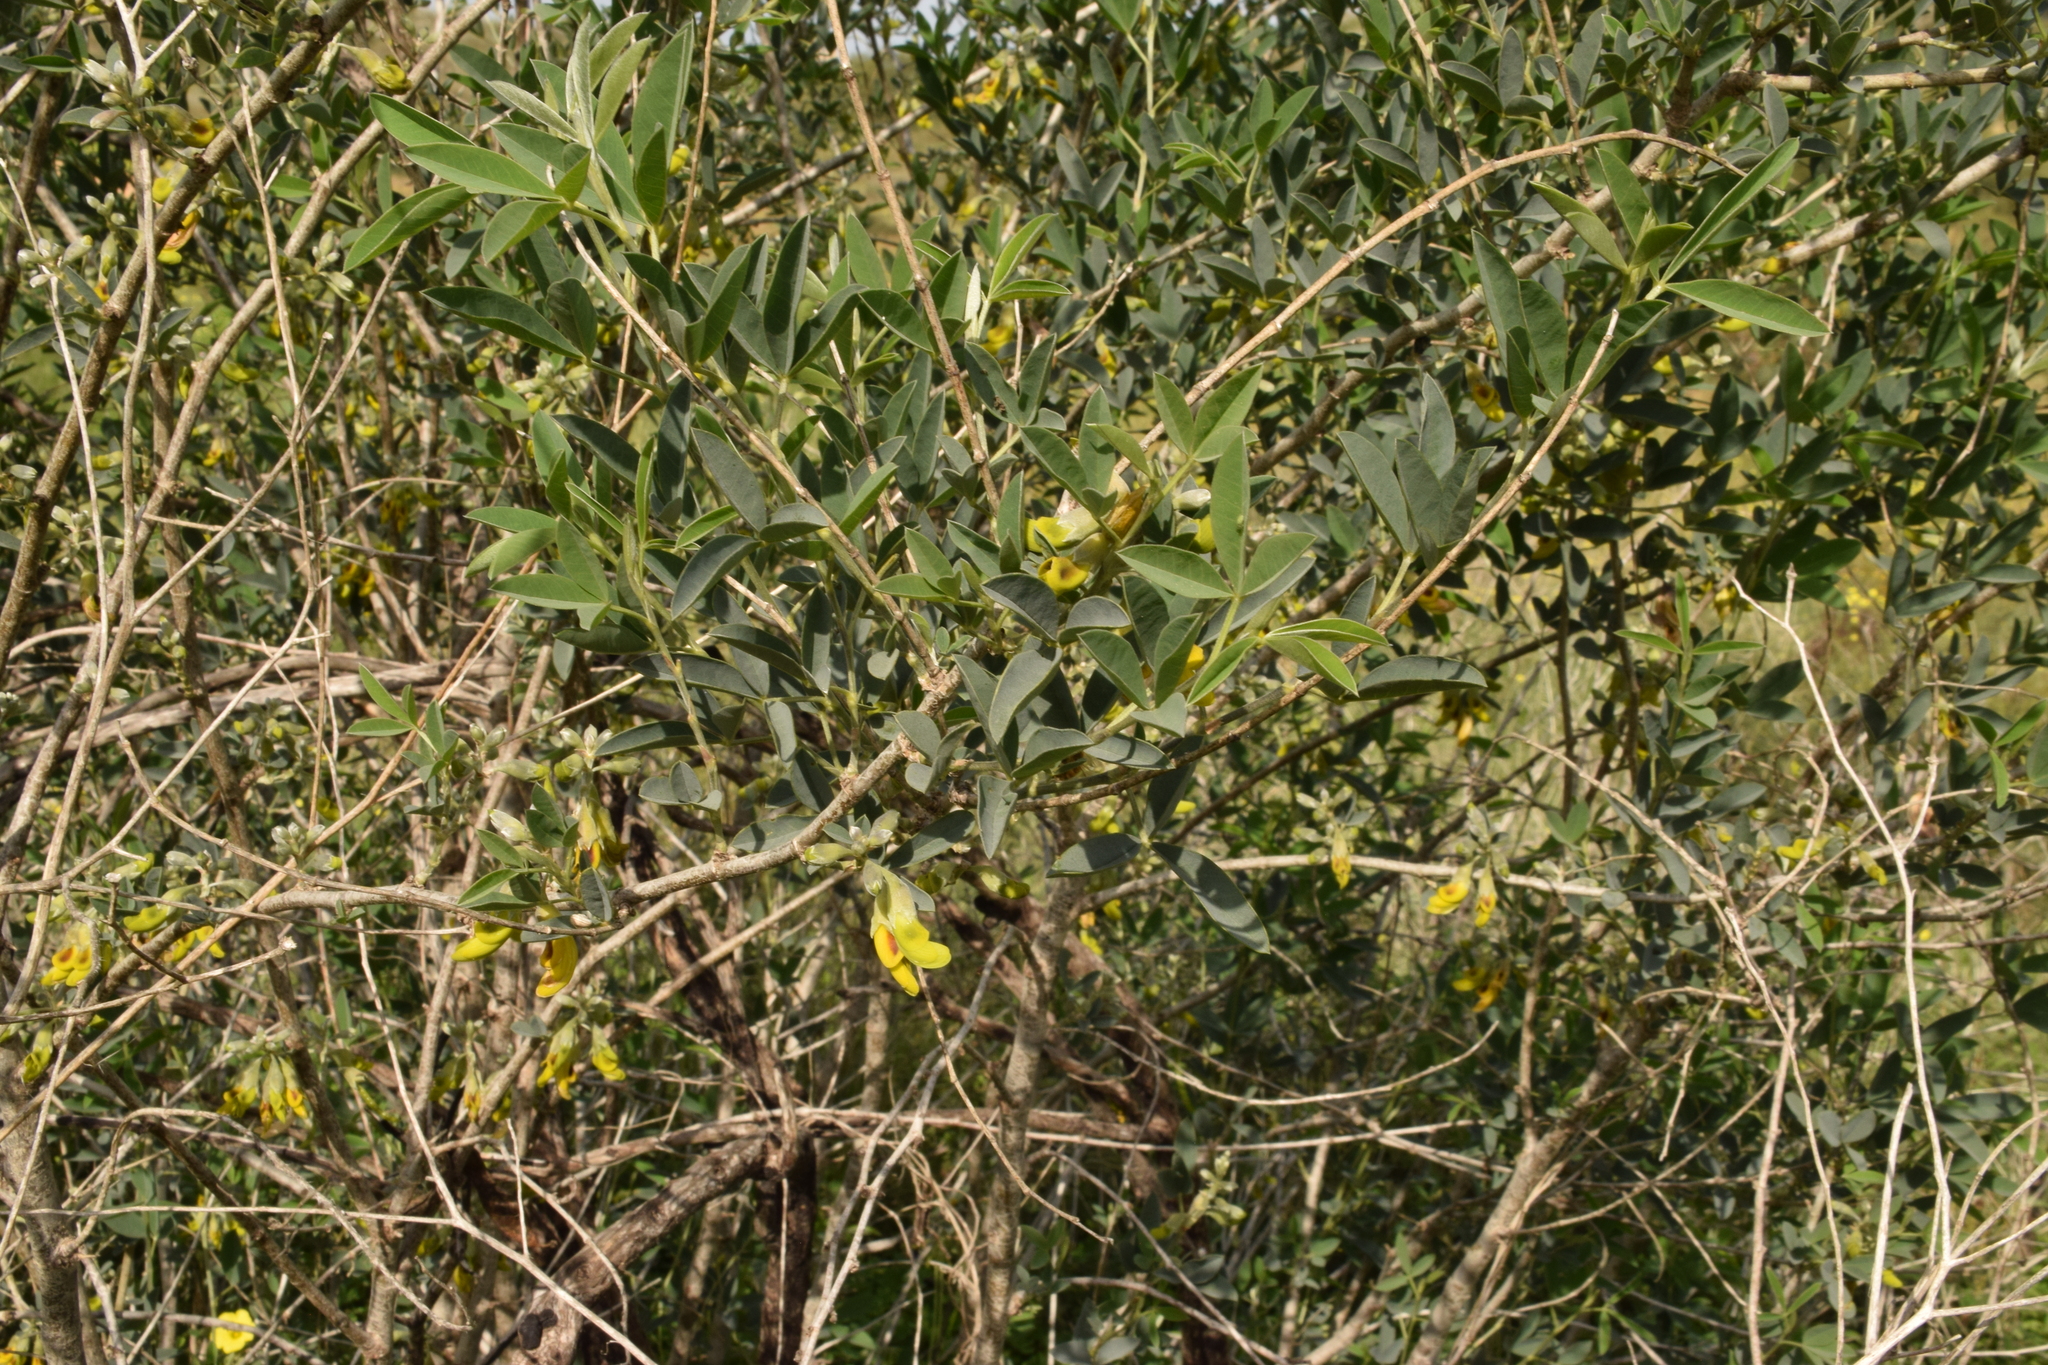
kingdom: Plantae
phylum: Tracheophyta
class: Magnoliopsida
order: Fabales
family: Fabaceae
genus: Anagyris
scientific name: Anagyris foetida
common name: Stinking bean trefoil
